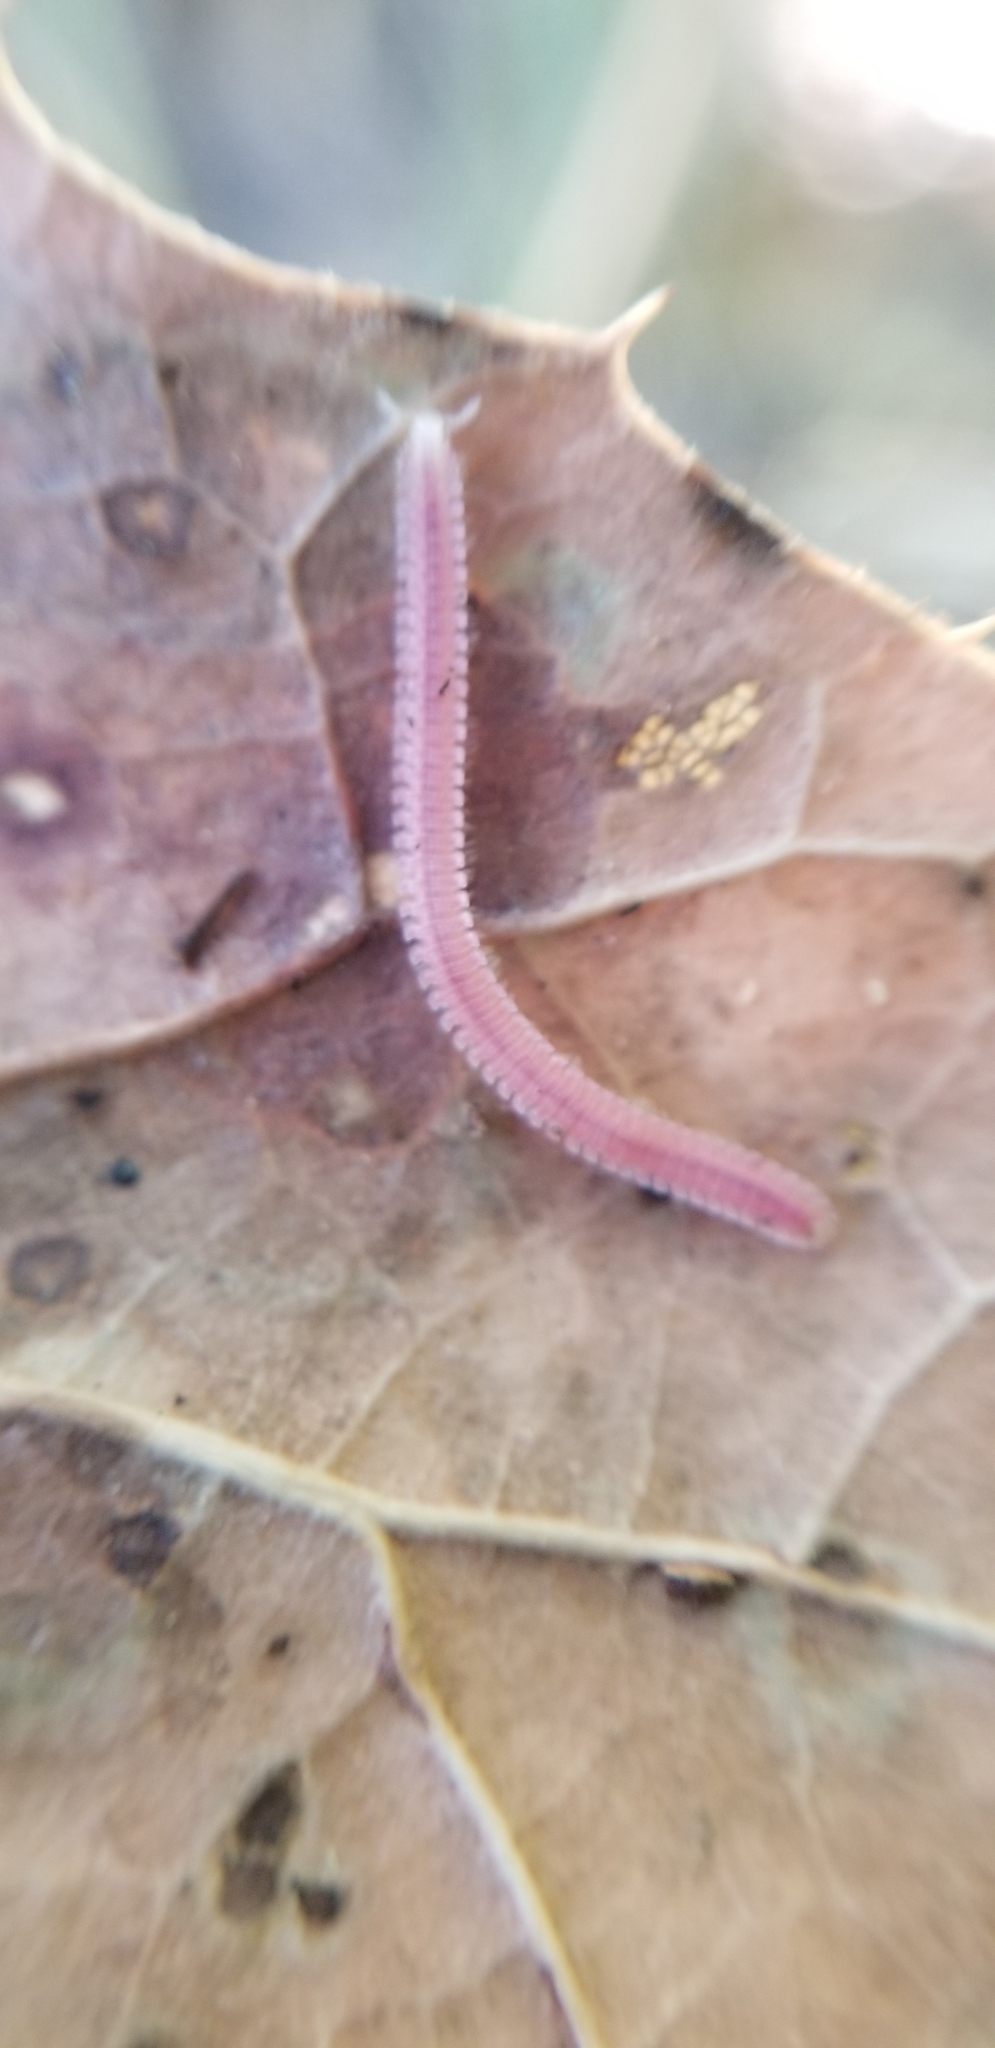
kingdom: Animalia
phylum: Arthropoda
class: Diplopoda
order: Platydesmida
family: Andrognathidae
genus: Gosodesmus
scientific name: Gosodesmus claremontus
